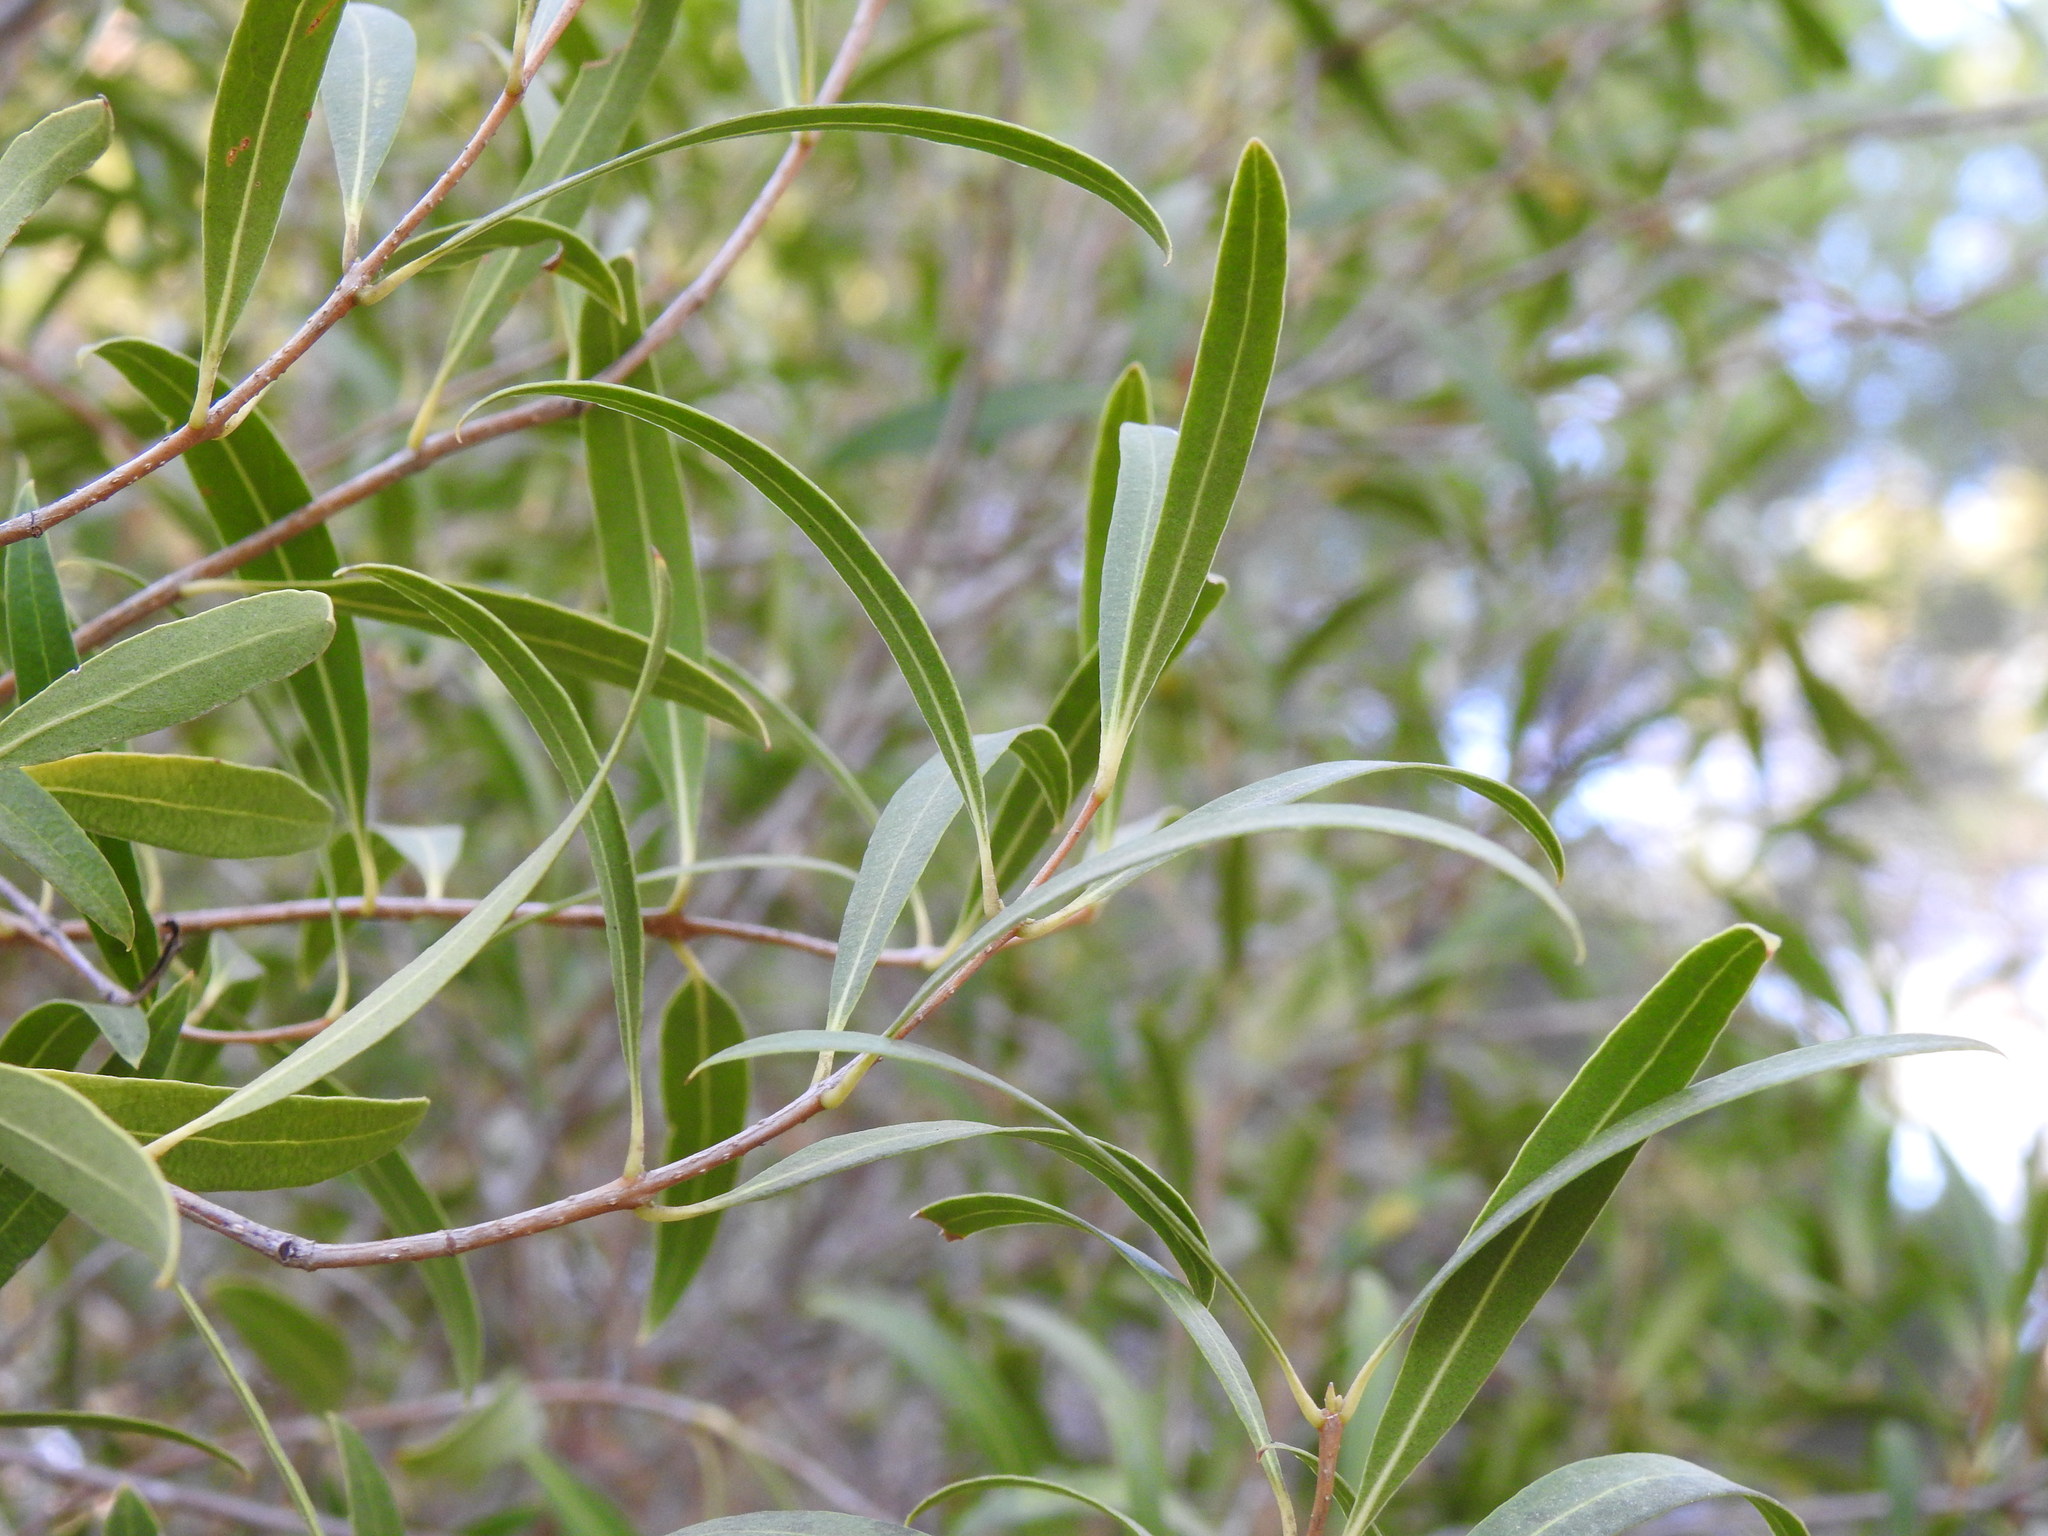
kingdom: Plantae
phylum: Tracheophyta
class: Magnoliopsida
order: Lamiales
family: Oleaceae
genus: Phillyrea
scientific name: Phillyrea angustifolia
